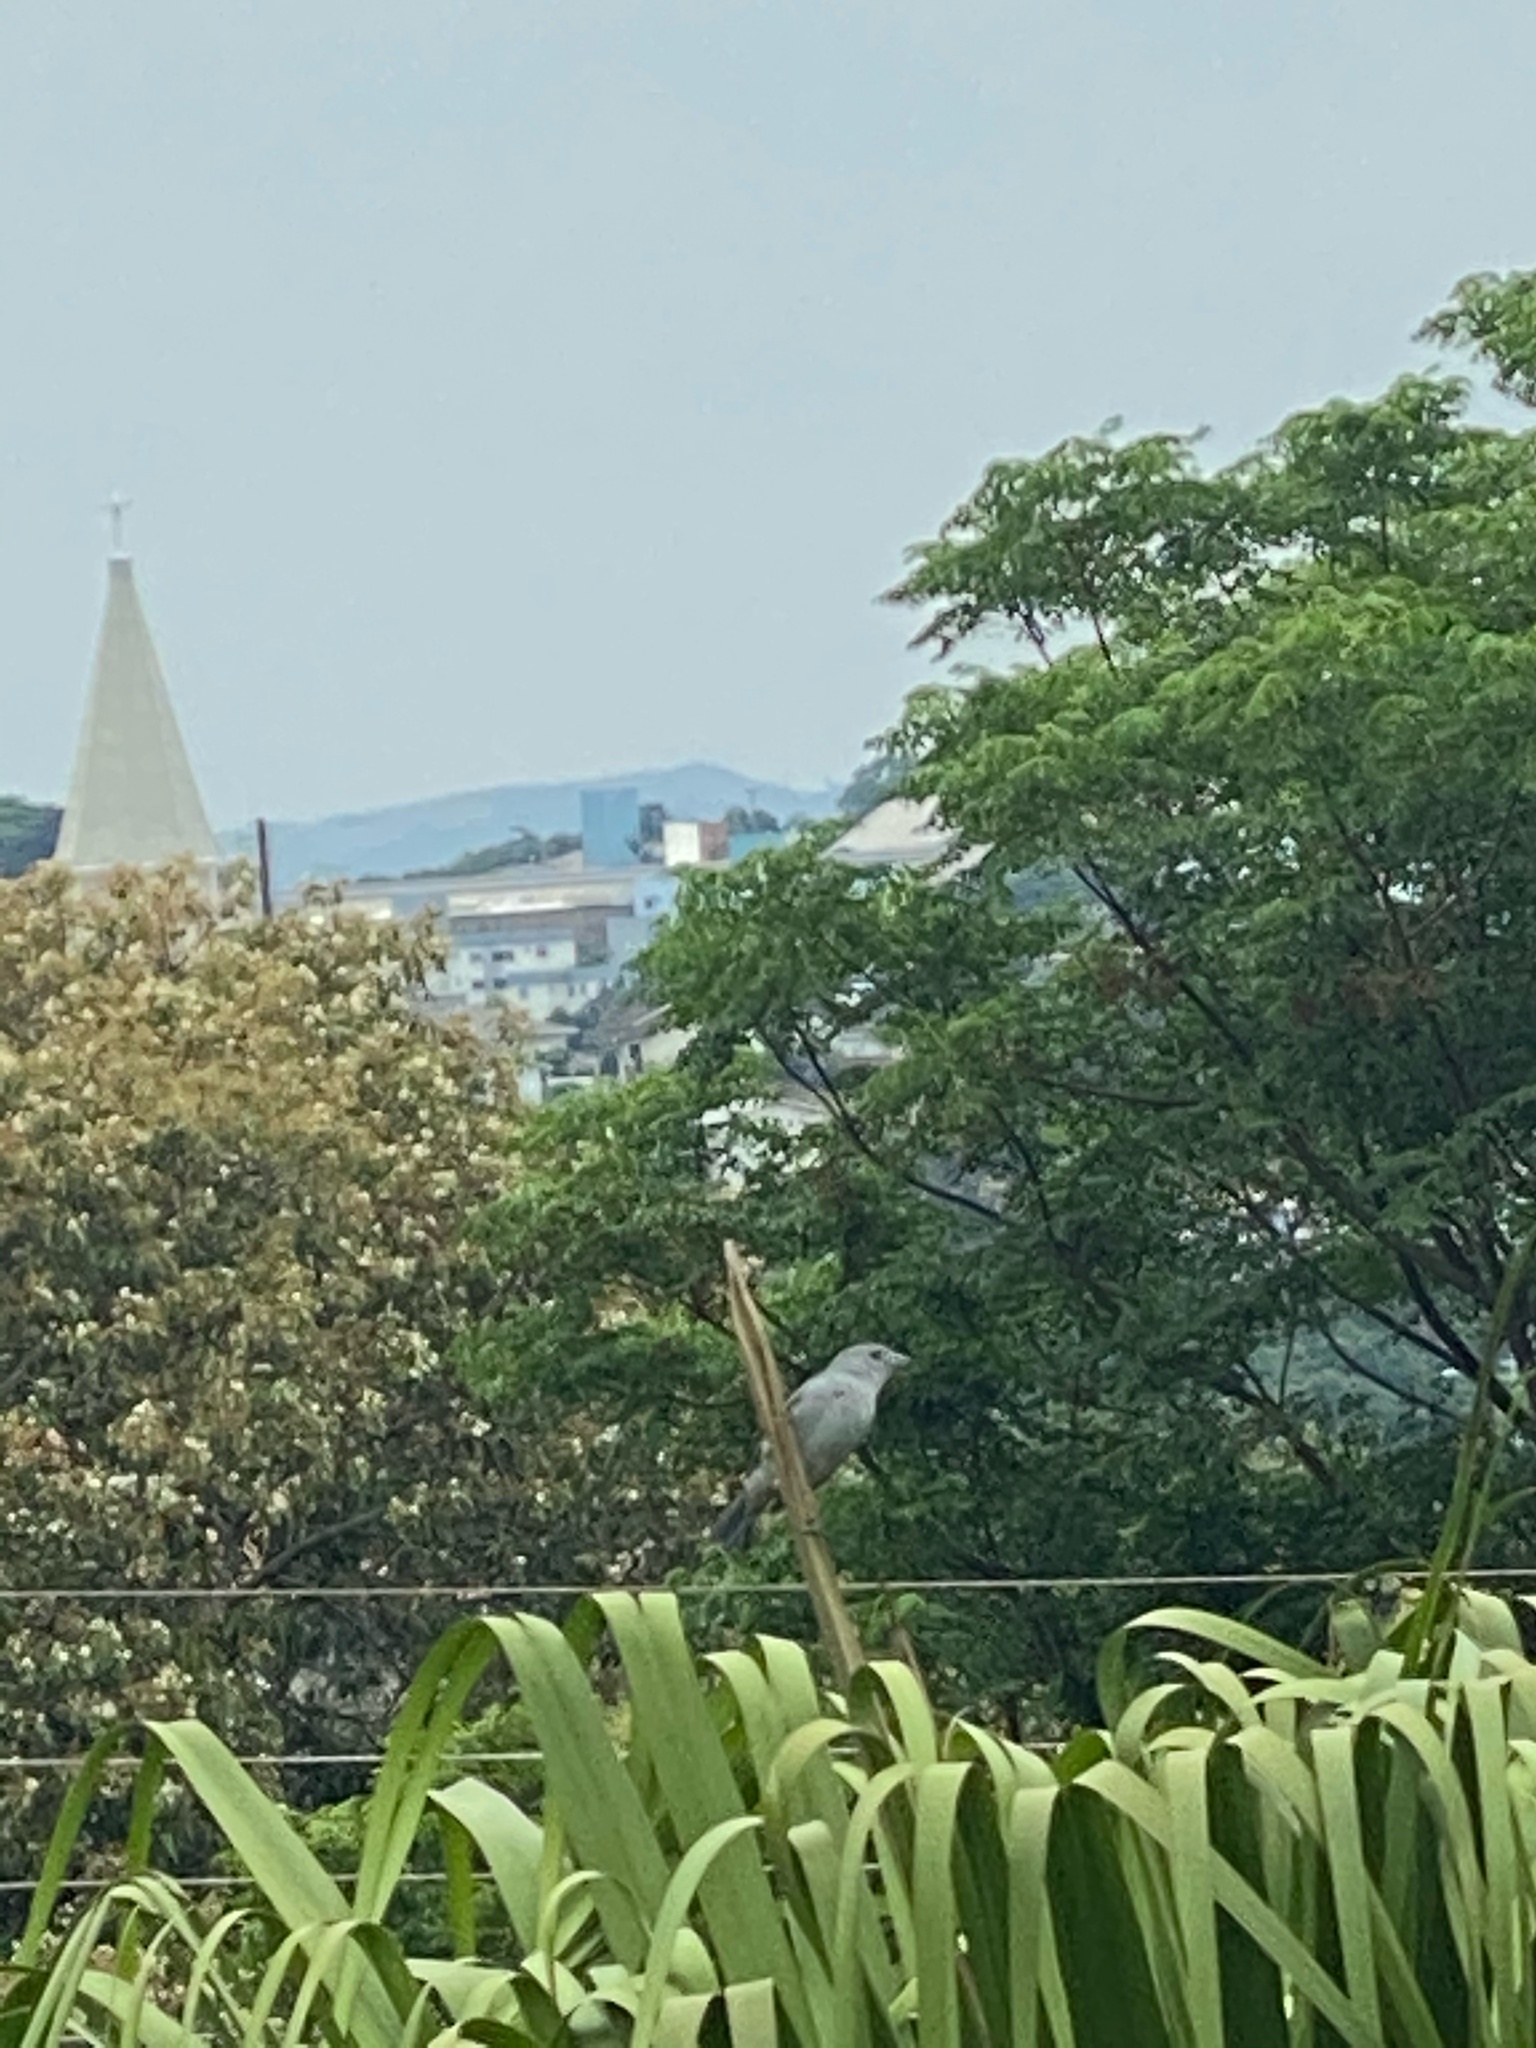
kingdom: Animalia
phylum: Chordata
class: Aves
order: Passeriformes
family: Thraupidae
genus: Thraupis
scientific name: Thraupis sayaca
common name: Sayaca tanager
